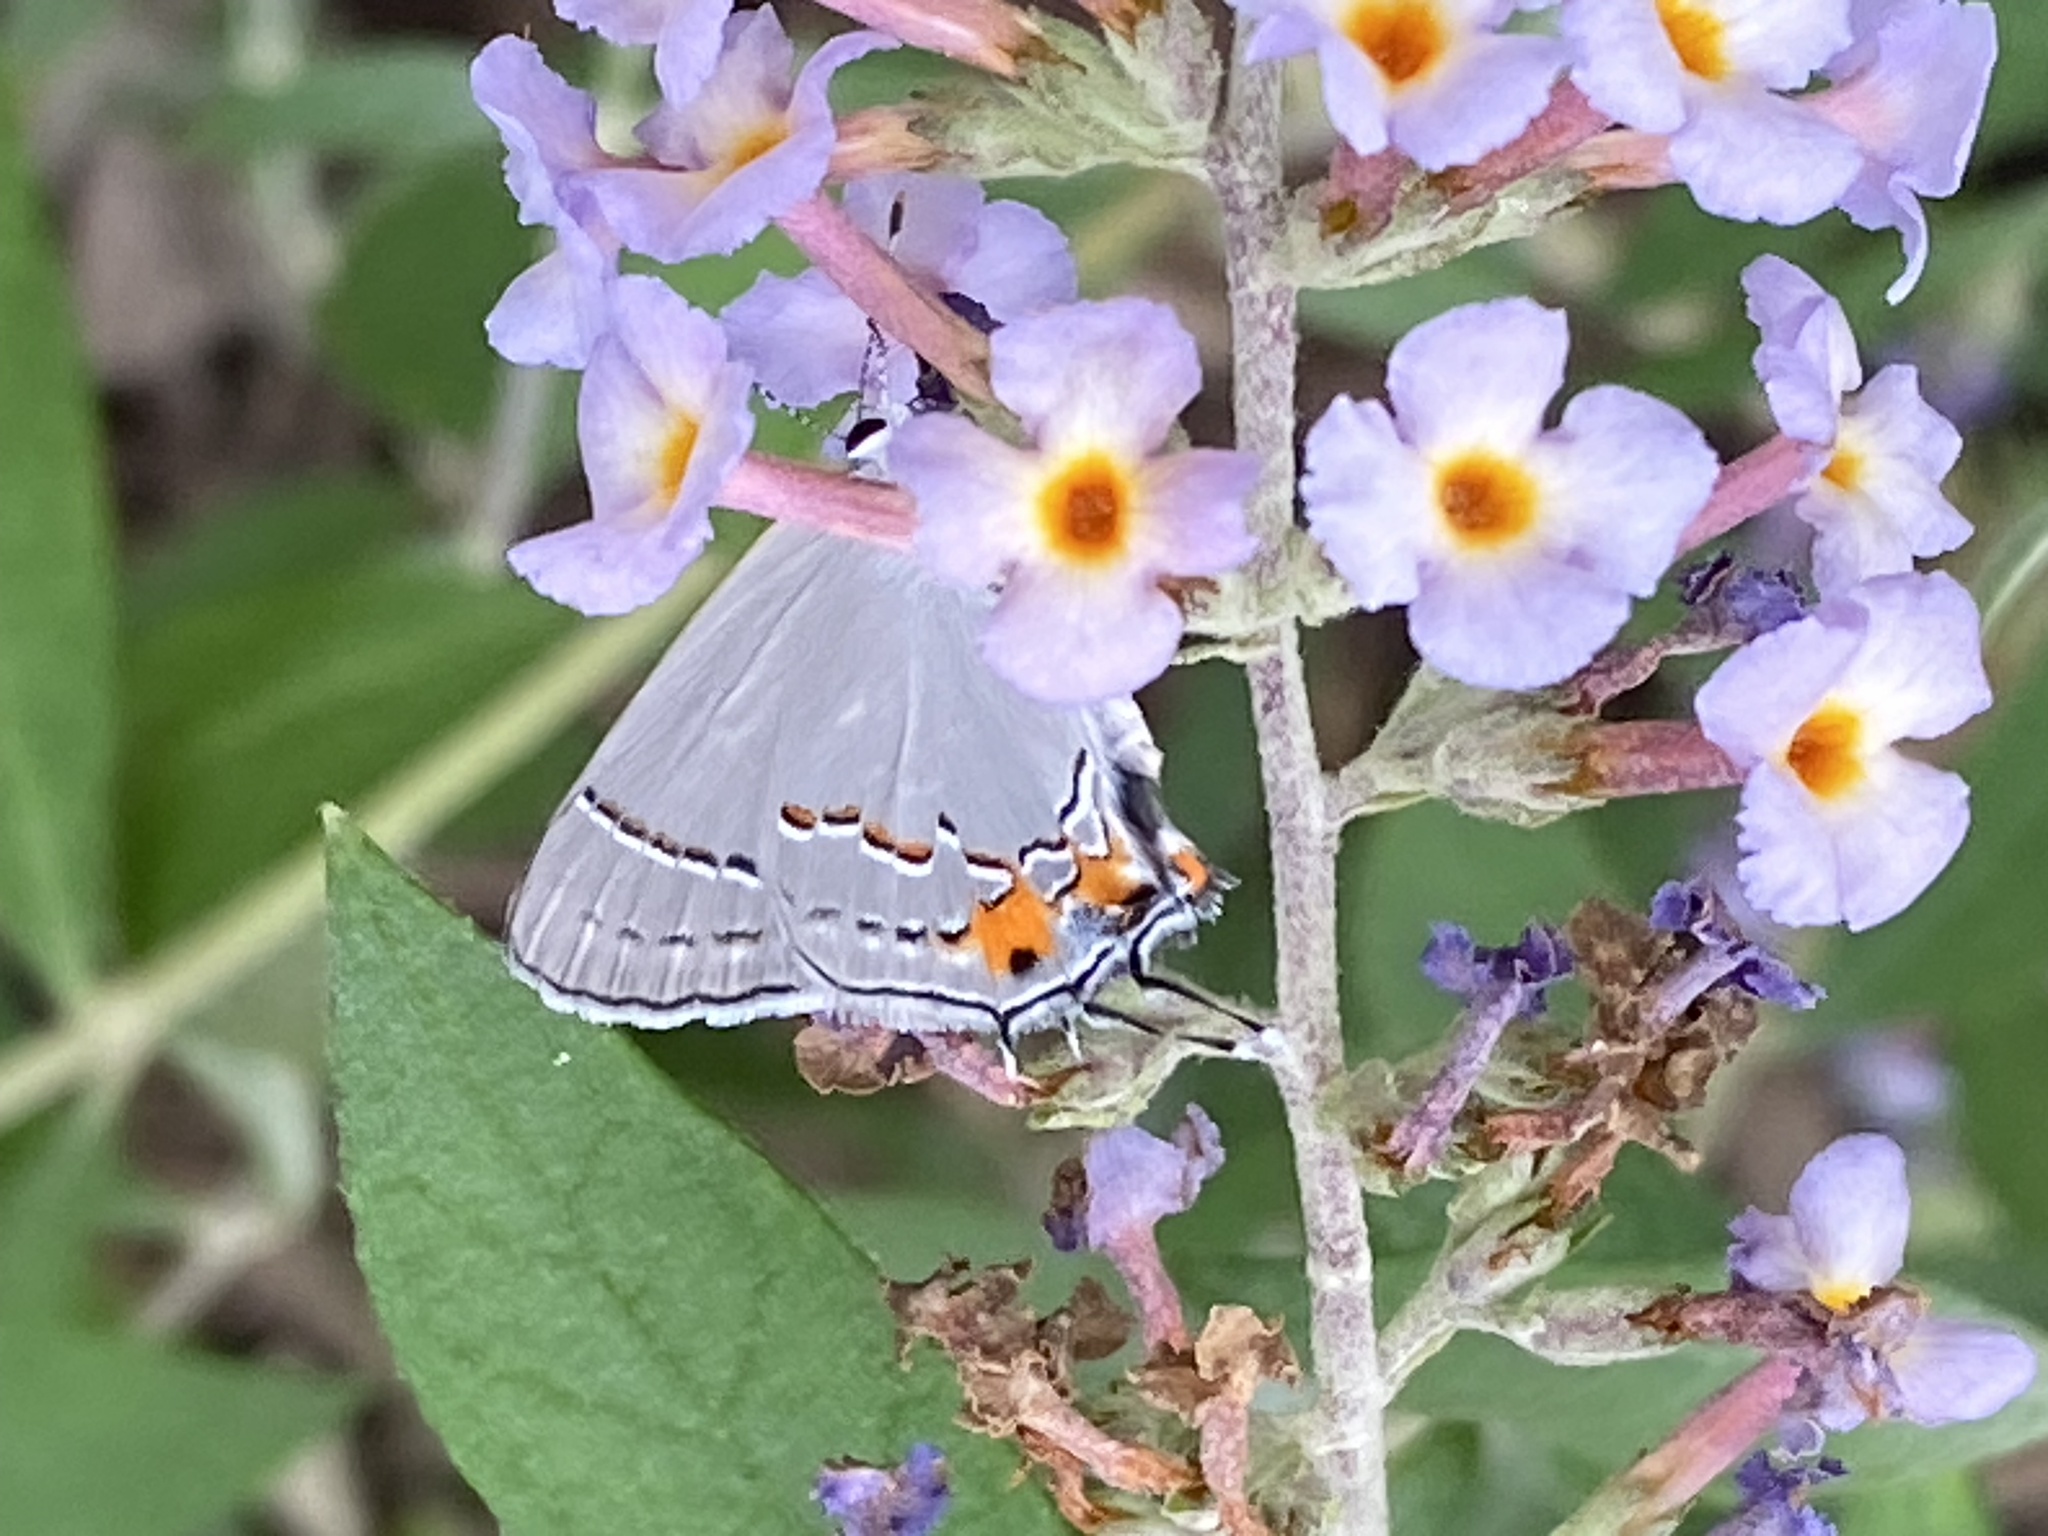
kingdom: Animalia
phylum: Arthropoda
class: Insecta
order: Lepidoptera
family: Lycaenidae
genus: Strymon
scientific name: Strymon melinus
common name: Gray hairstreak
